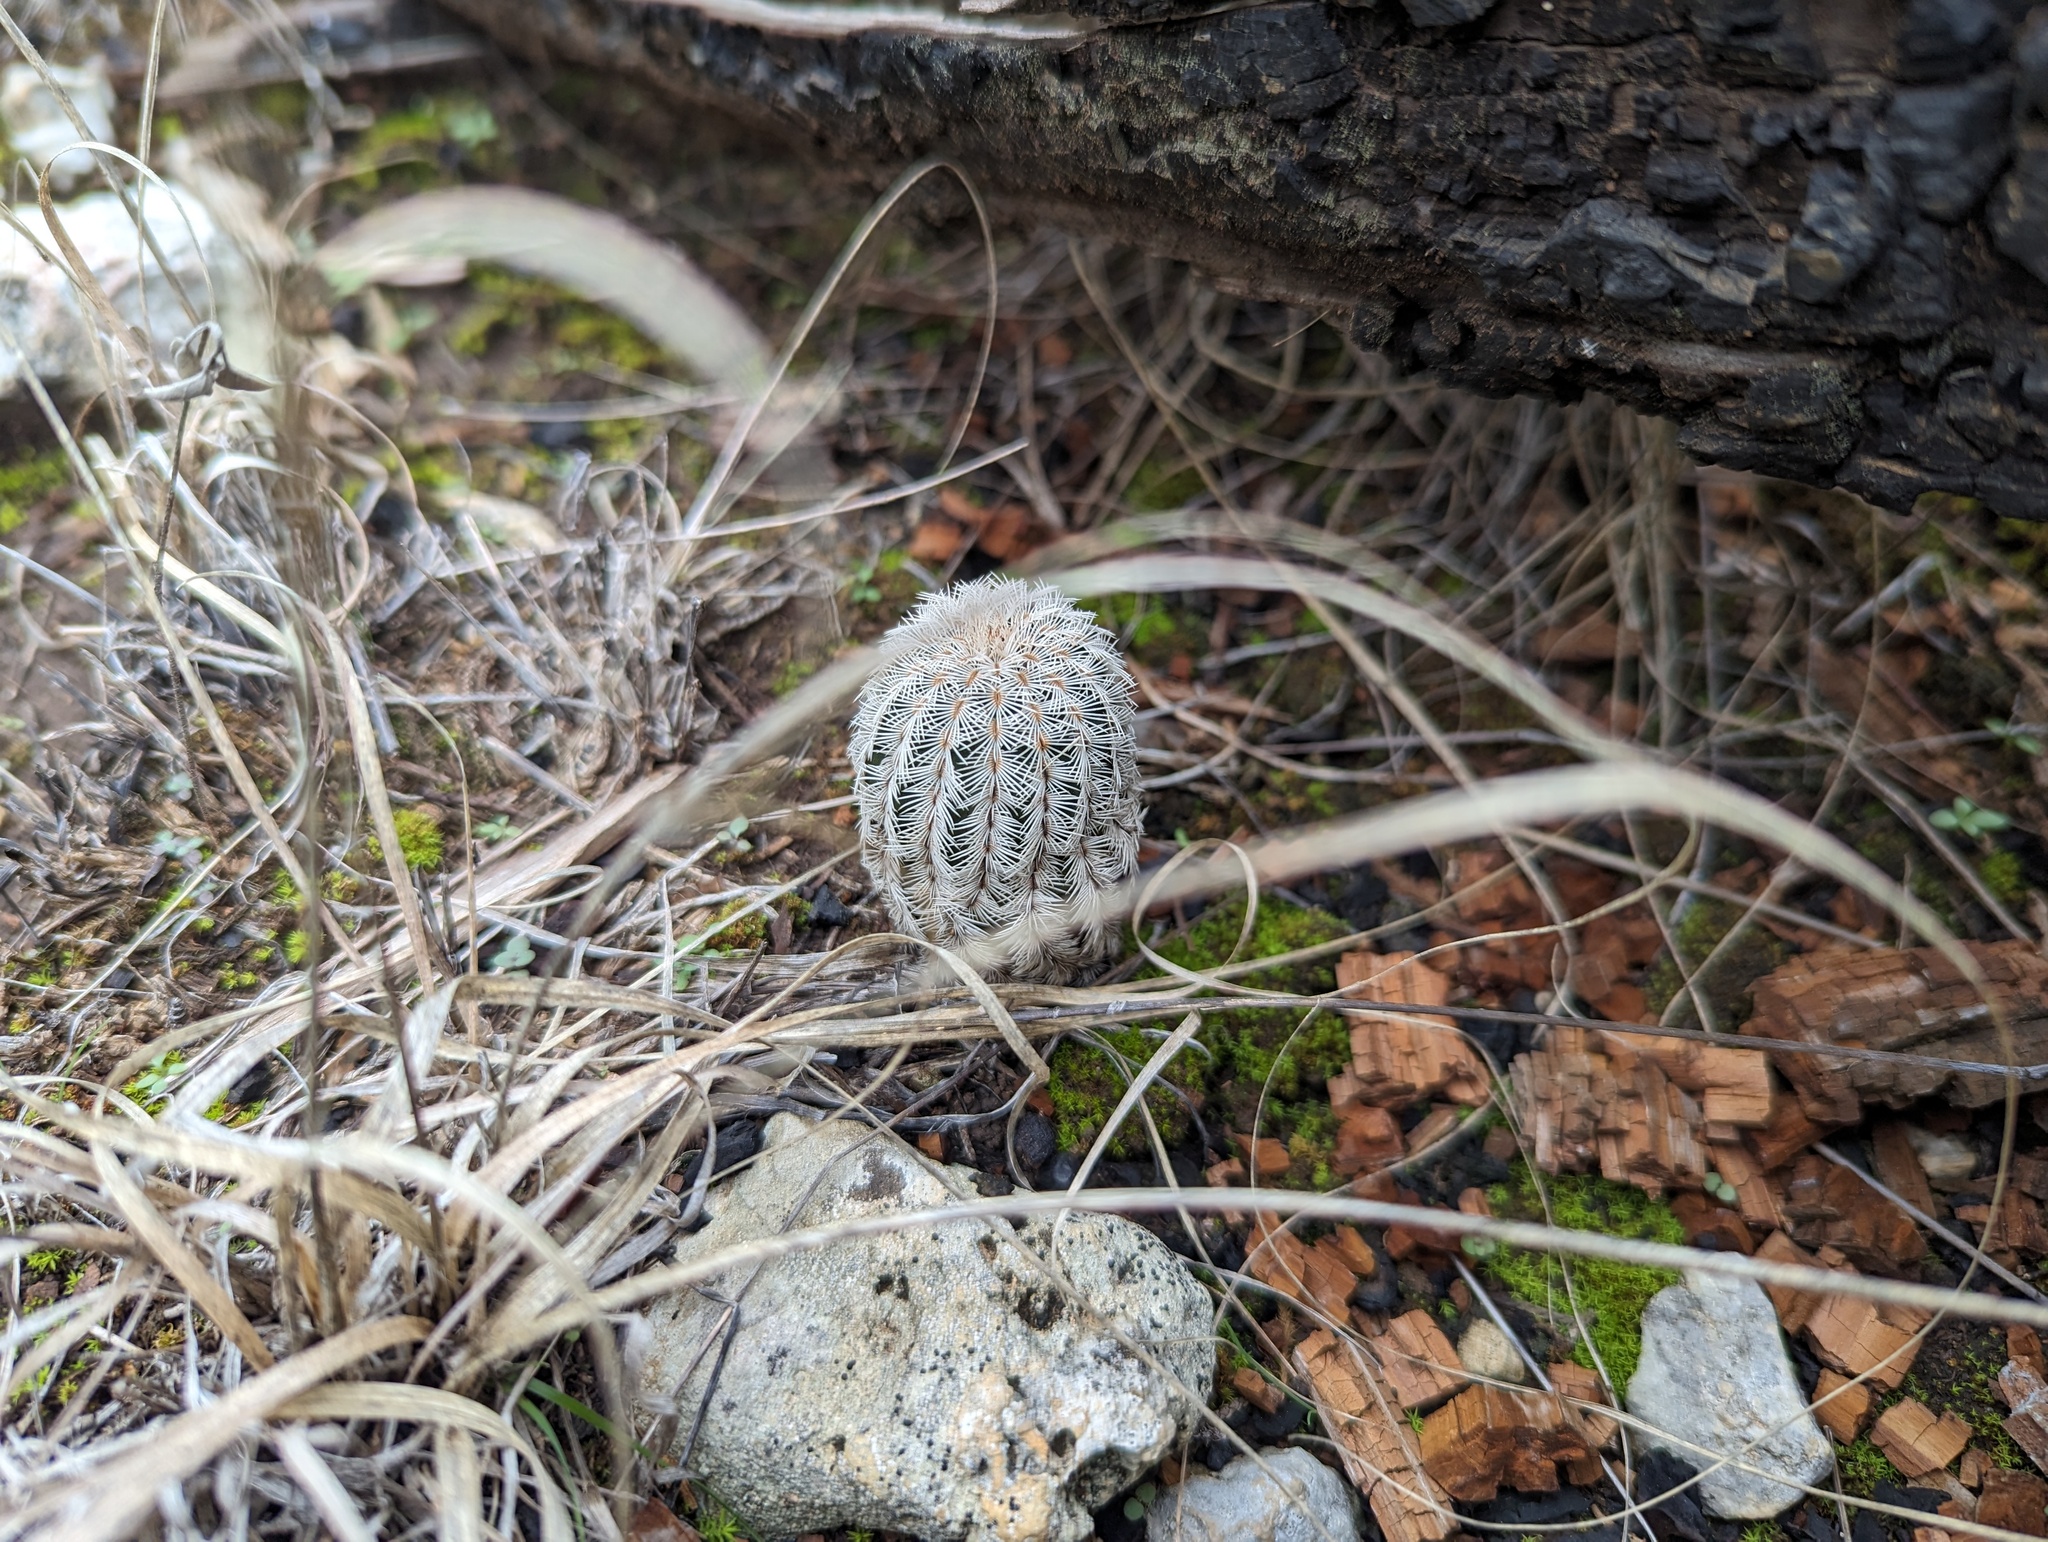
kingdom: Plantae
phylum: Tracheophyta
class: Magnoliopsida
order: Caryophyllales
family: Cactaceae
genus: Echinocereus
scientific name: Echinocereus reichenbachii
